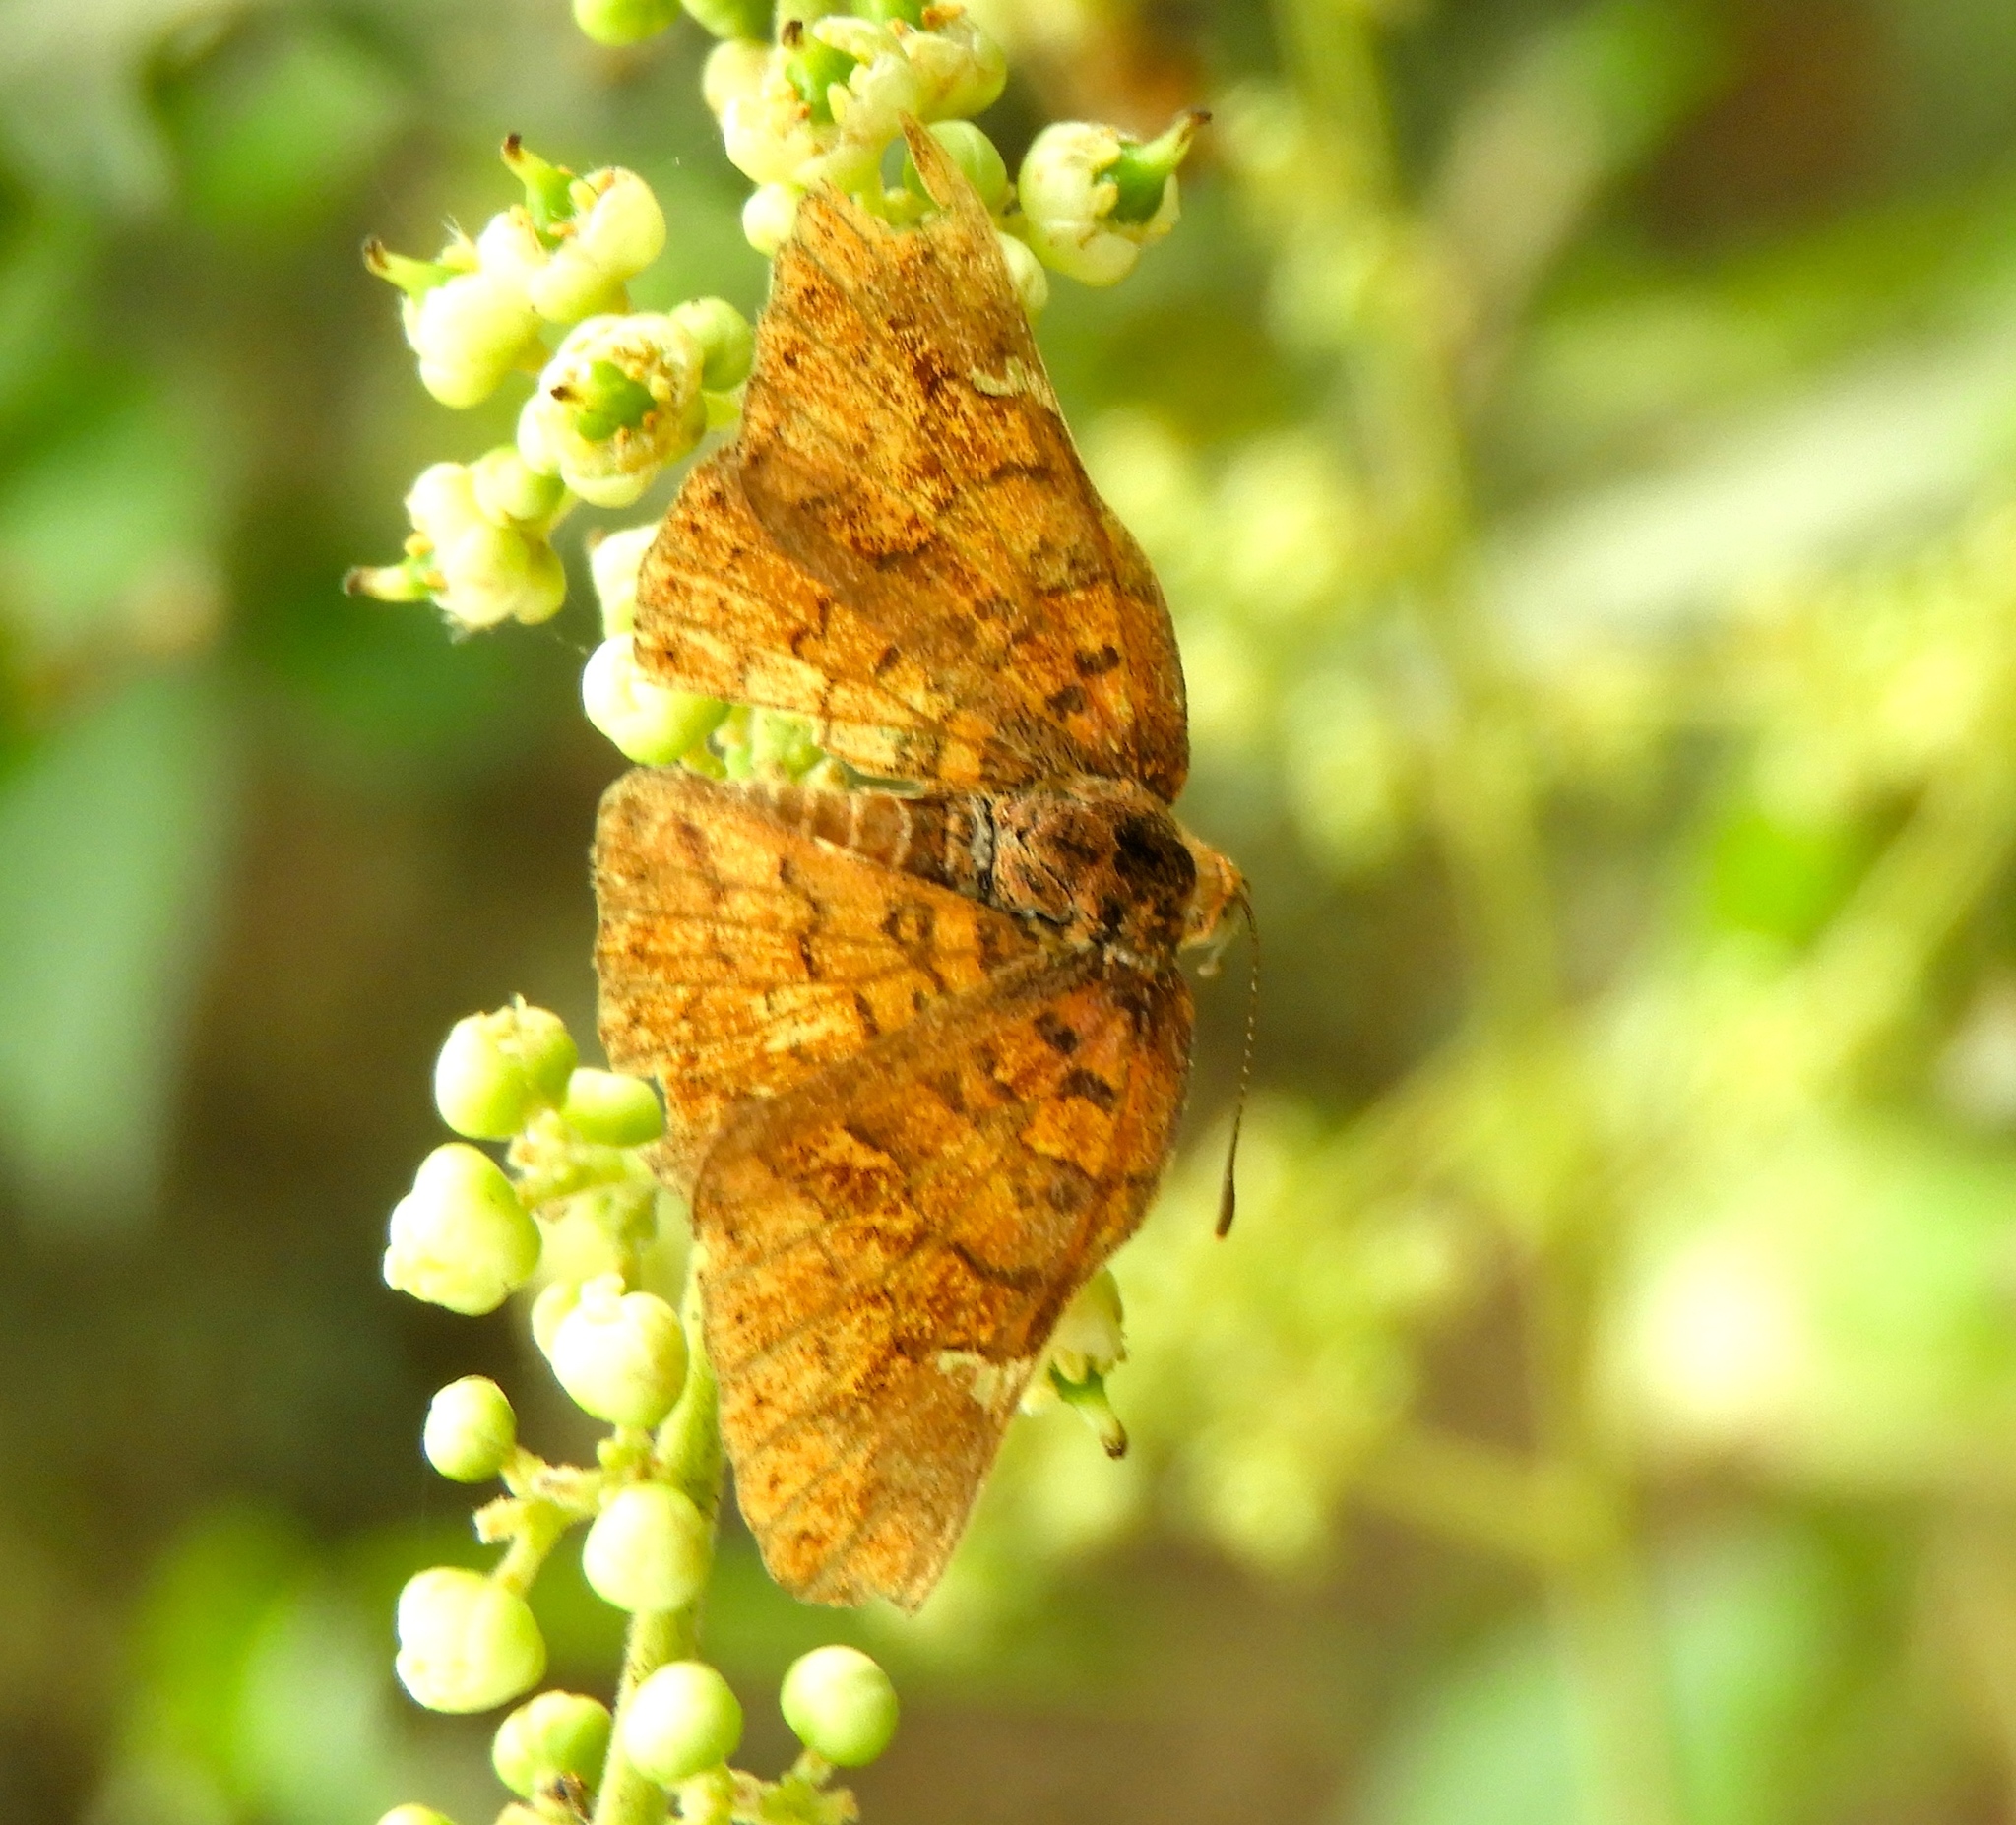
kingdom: Animalia
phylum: Arthropoda
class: Insecta
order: Lepidoptera
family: Riodinidae
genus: Curvie
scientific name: Curvie emesia
